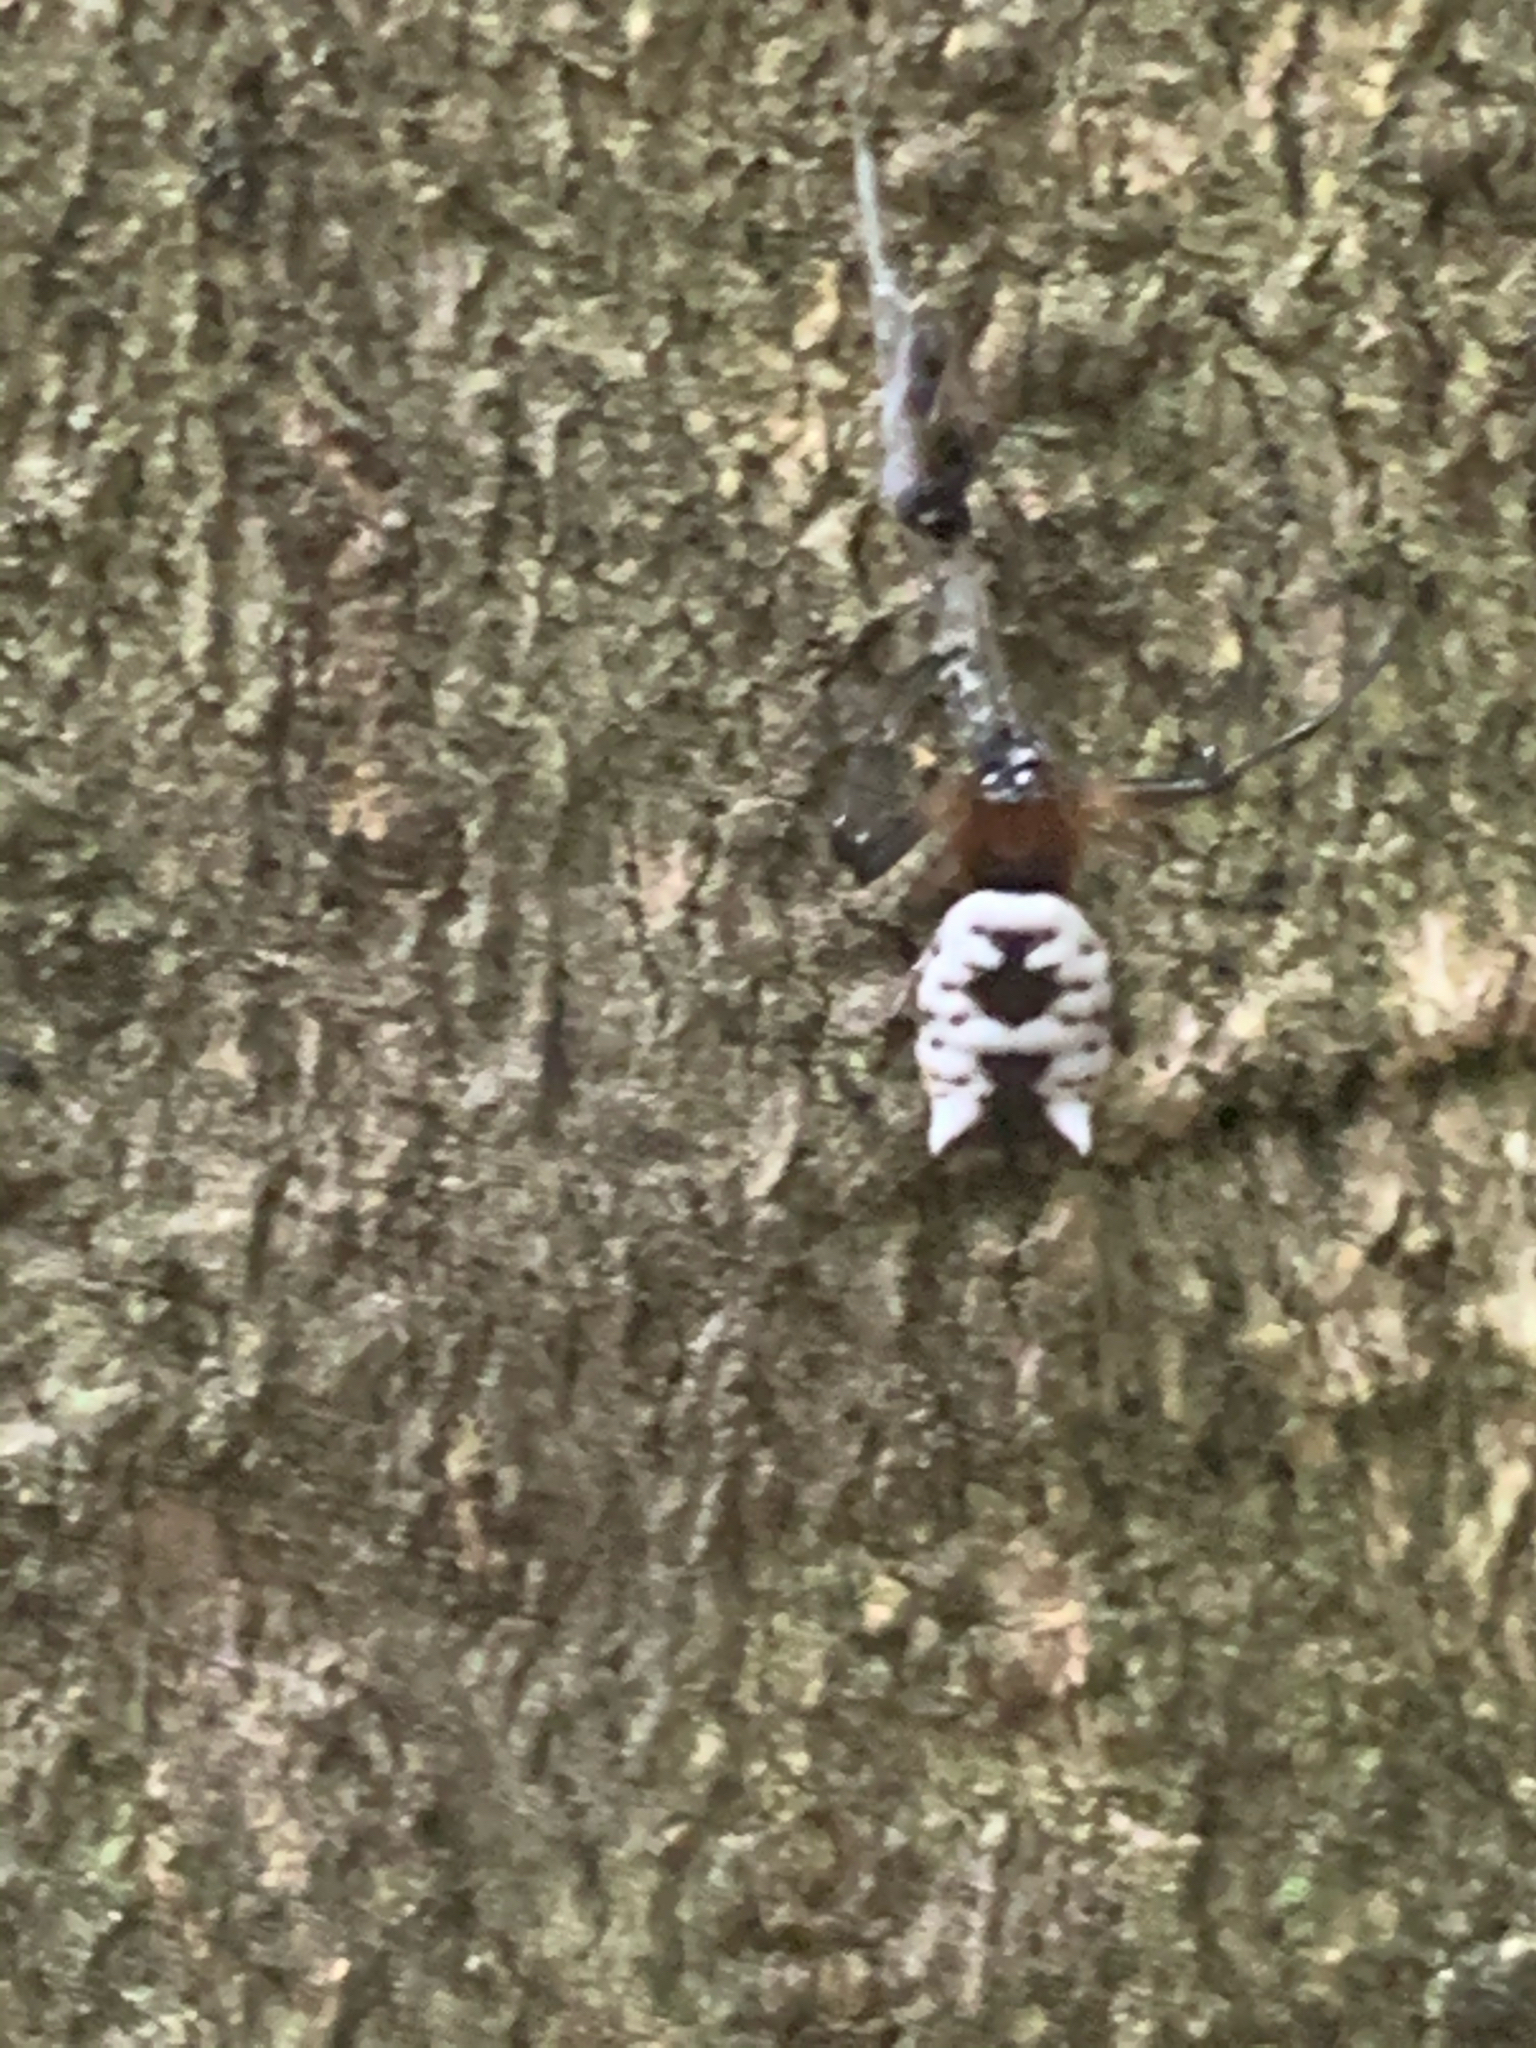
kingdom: Animalia
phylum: Arthropoda
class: Arachnida
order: Araneae
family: Araneidae
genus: Micrathena
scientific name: Micrathena mitrata
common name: Orb weavers
